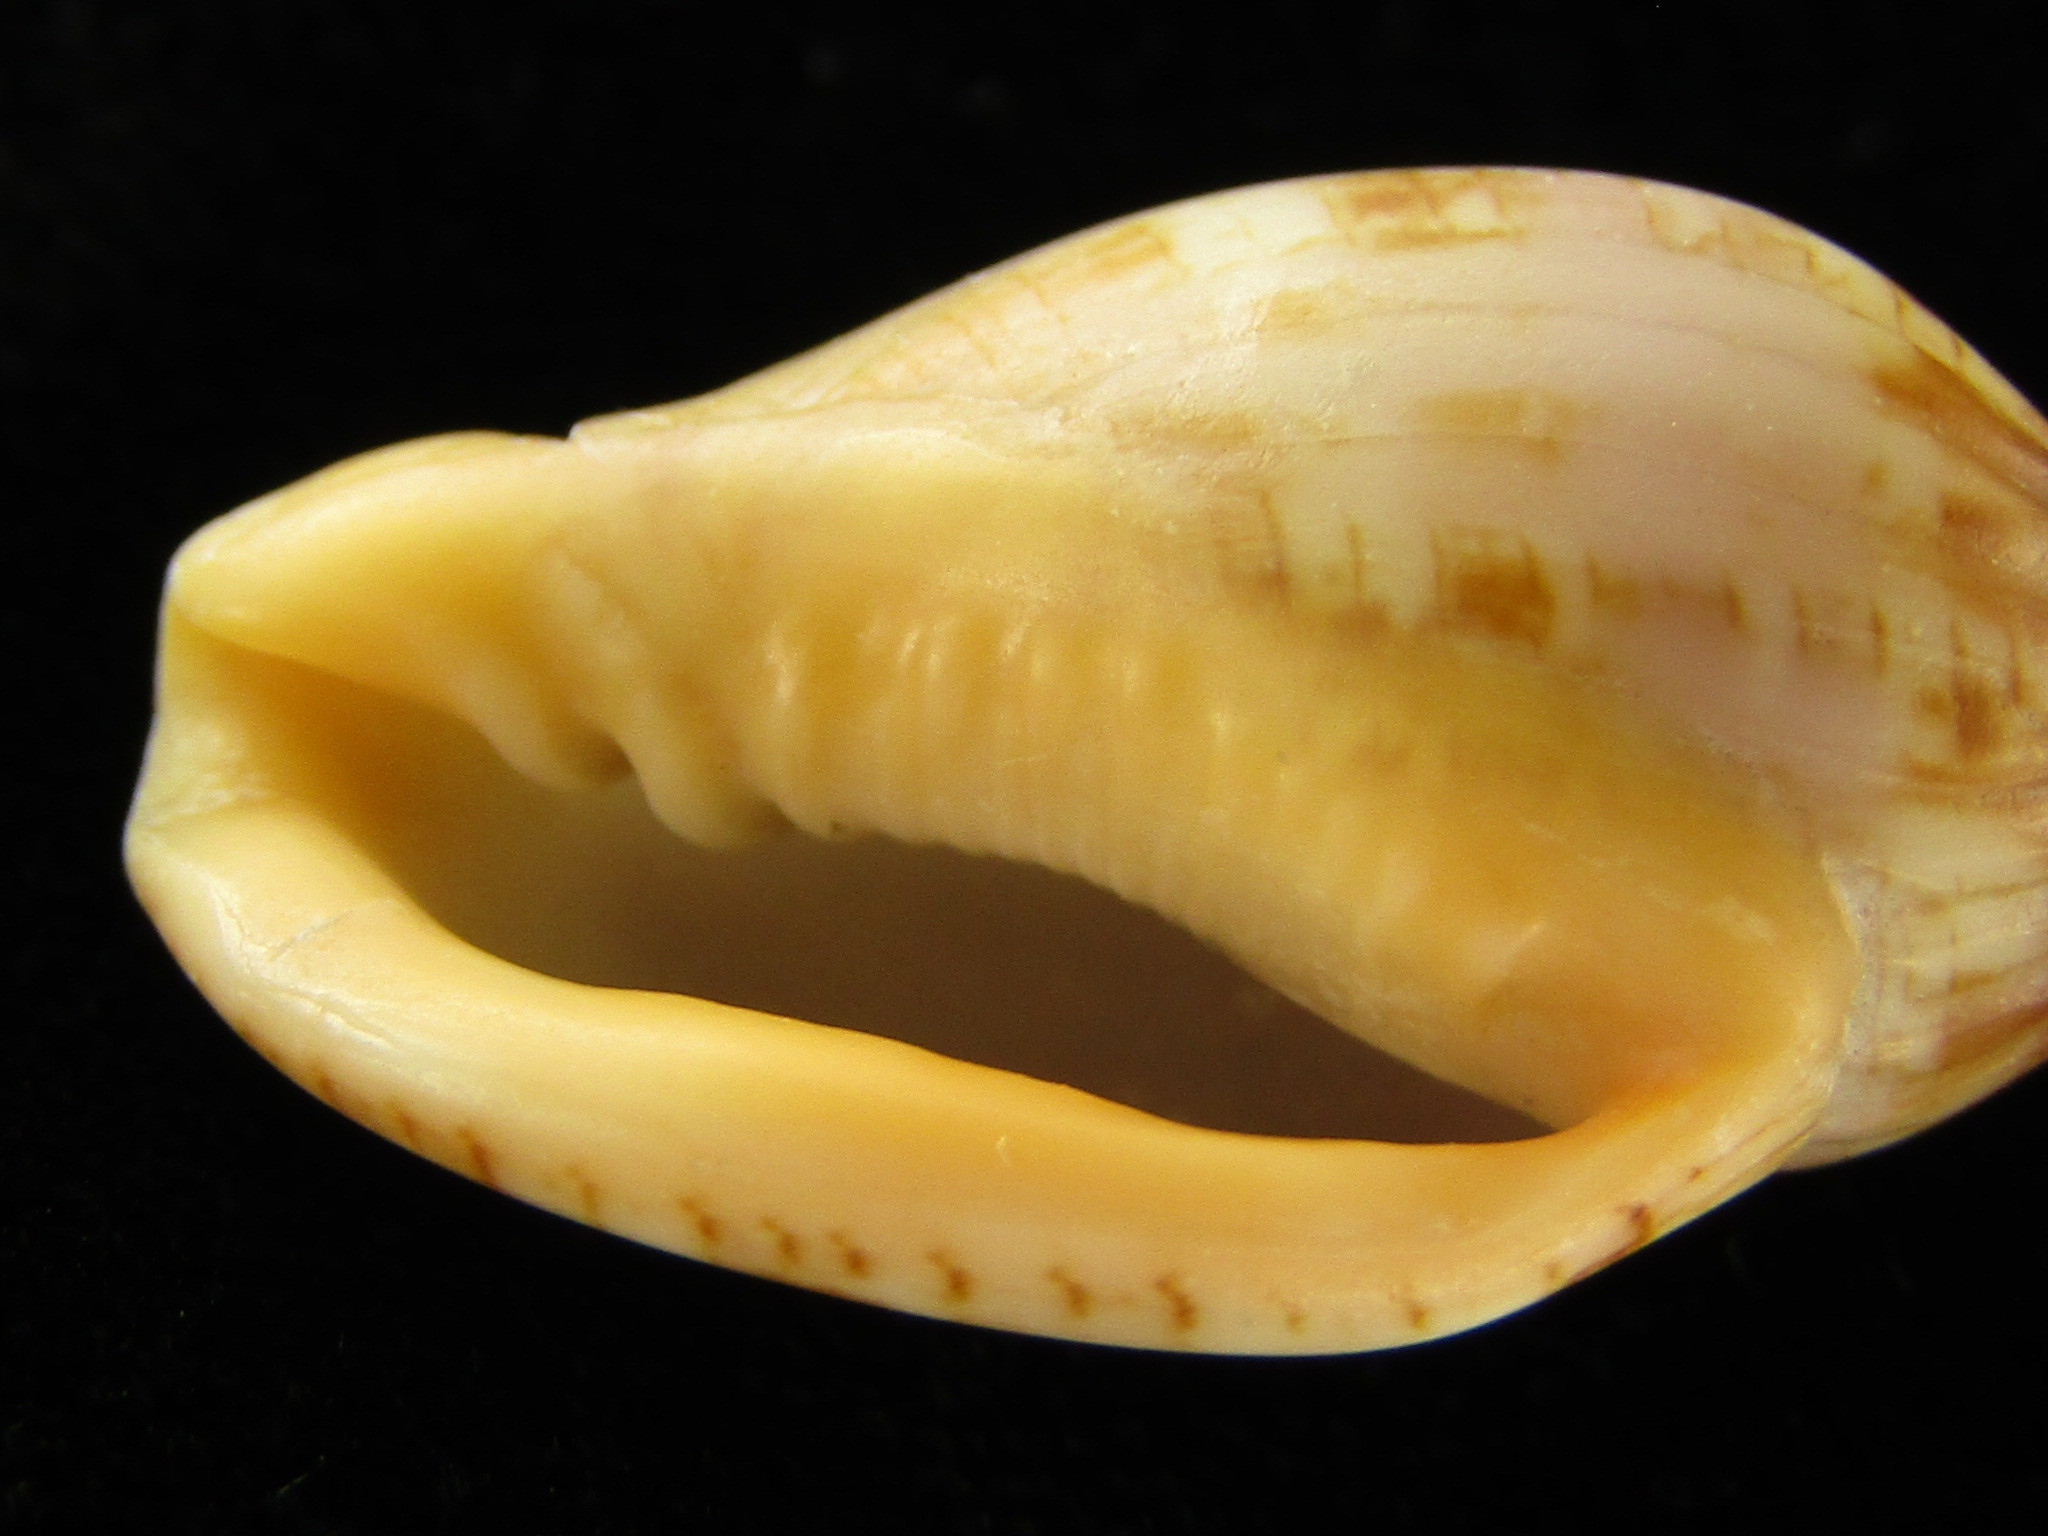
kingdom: Animalia
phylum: Mollusca
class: Gastropoda
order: Neogastropoda
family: Volutidae
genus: Lyria
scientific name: Lyria cassidula
